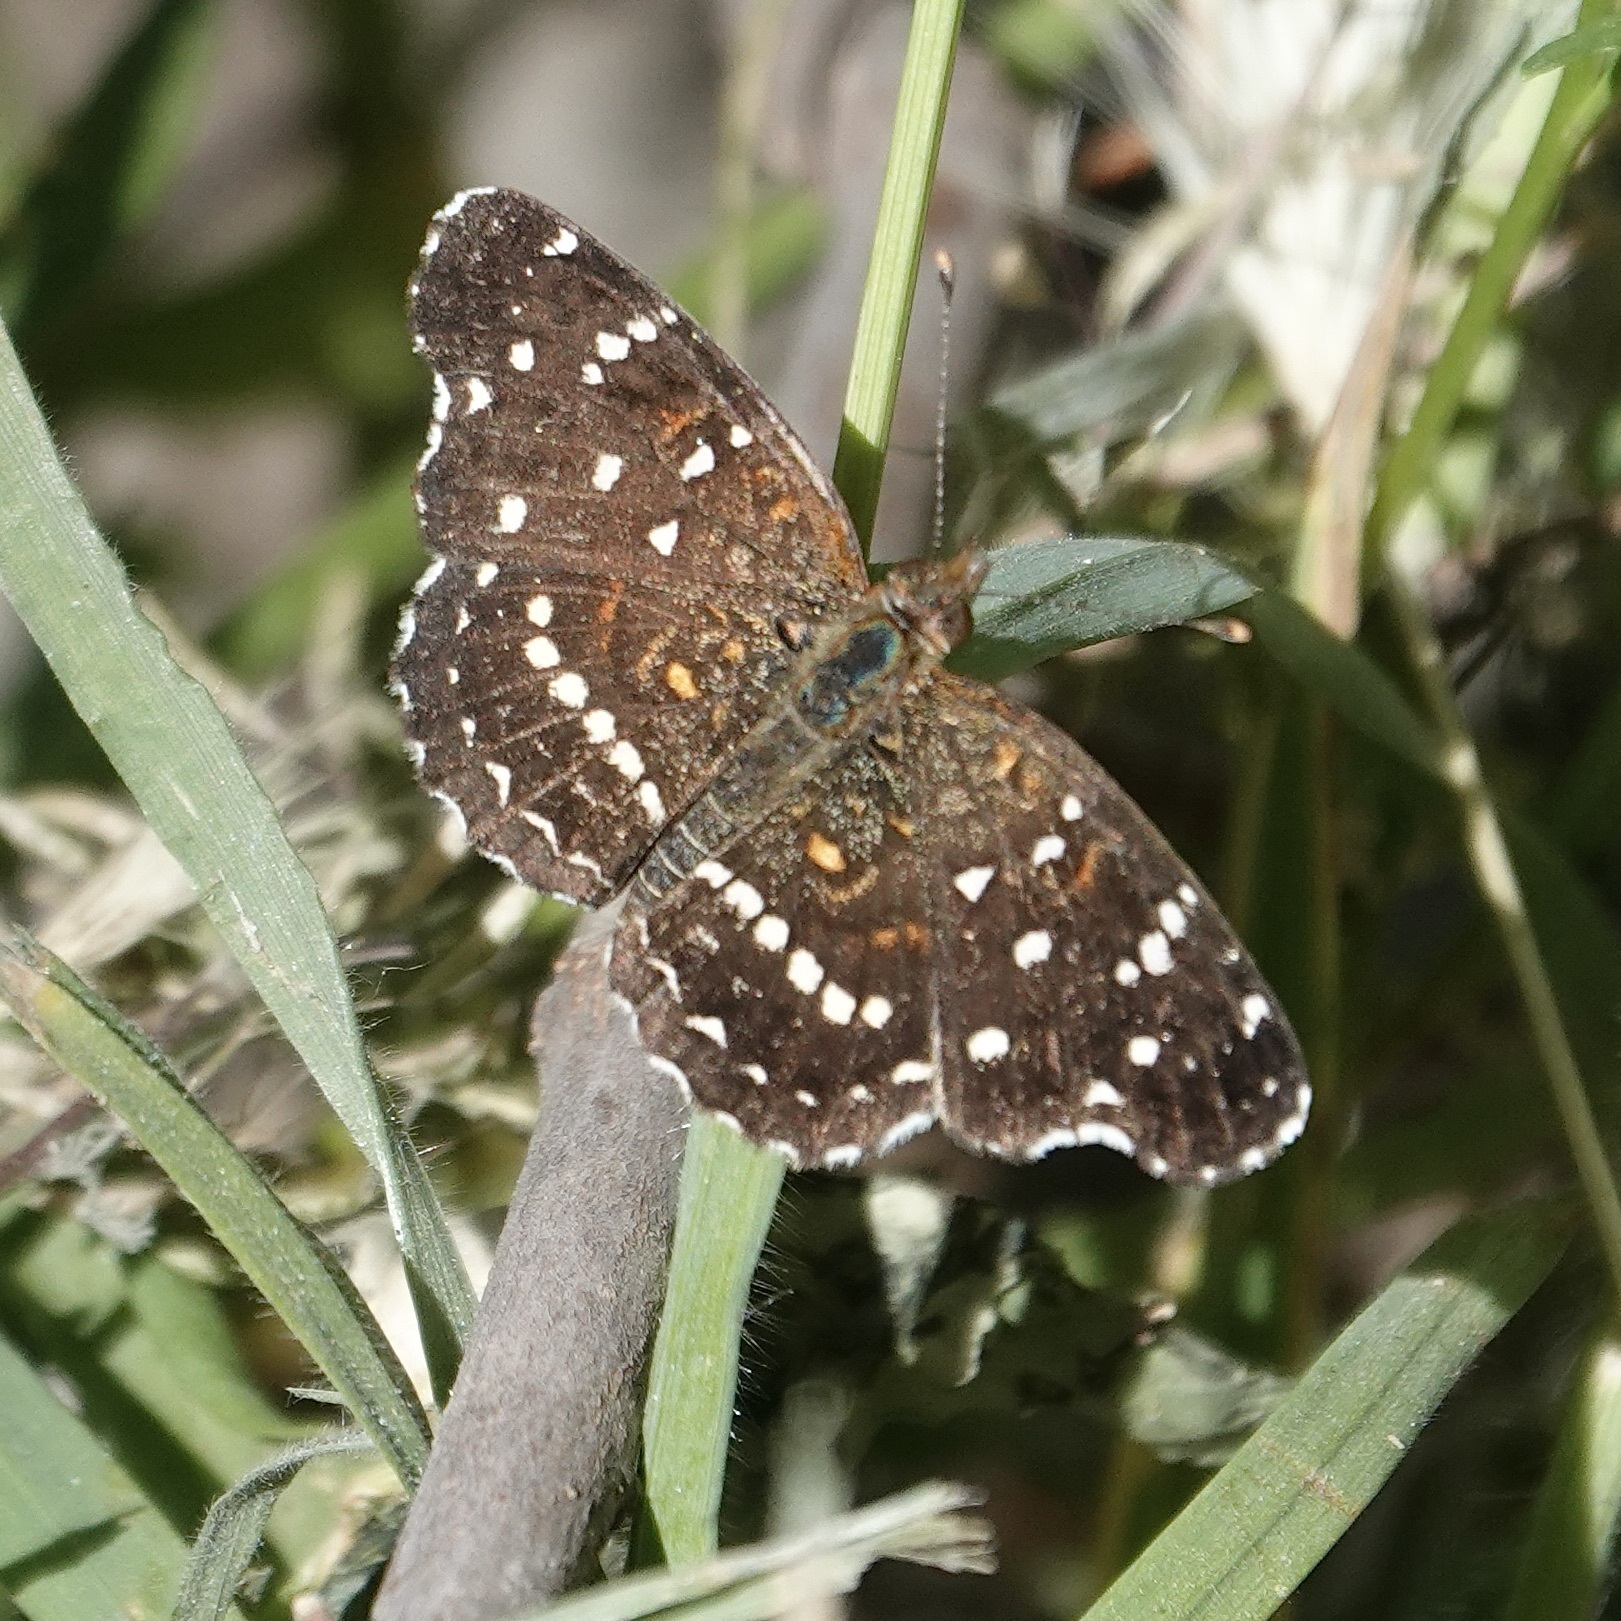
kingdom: Animalia
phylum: Arthropoda
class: Insecta
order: Lepidoptera
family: Nymphalidae
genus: Anthanassa
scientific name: Anthanassa texana
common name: Texan crescent
